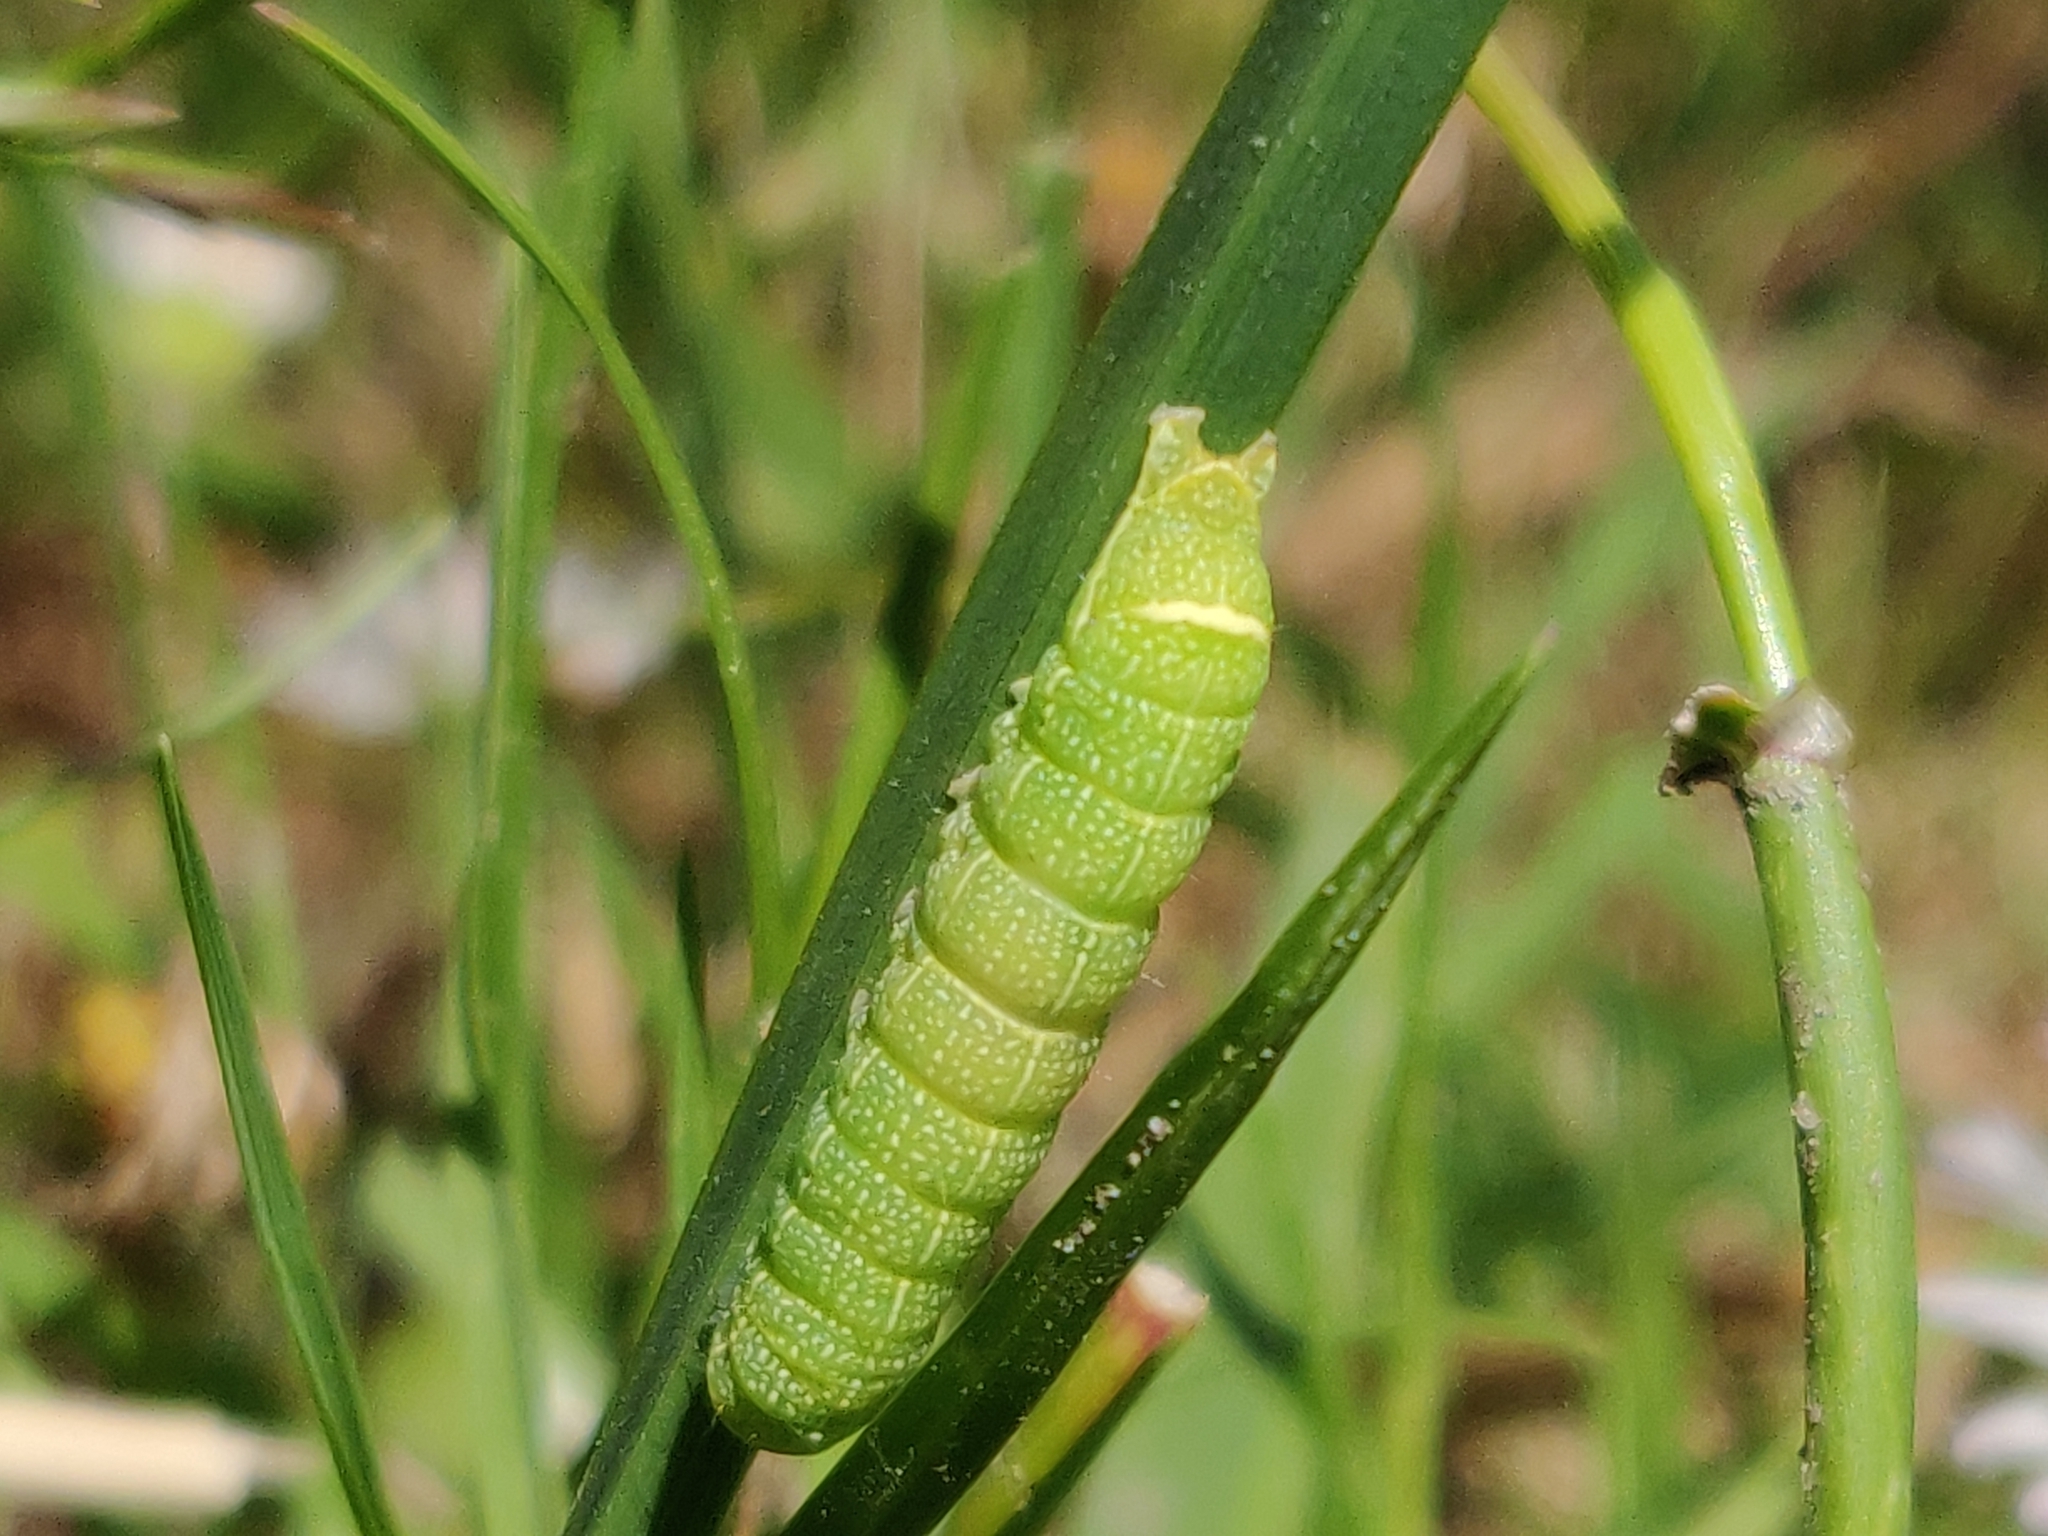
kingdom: Animalia
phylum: Arthropoda
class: Insecta
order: Lepidoptera
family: Noctuidae
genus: Orthosia
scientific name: Orthosia cerasi
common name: Common quaker
